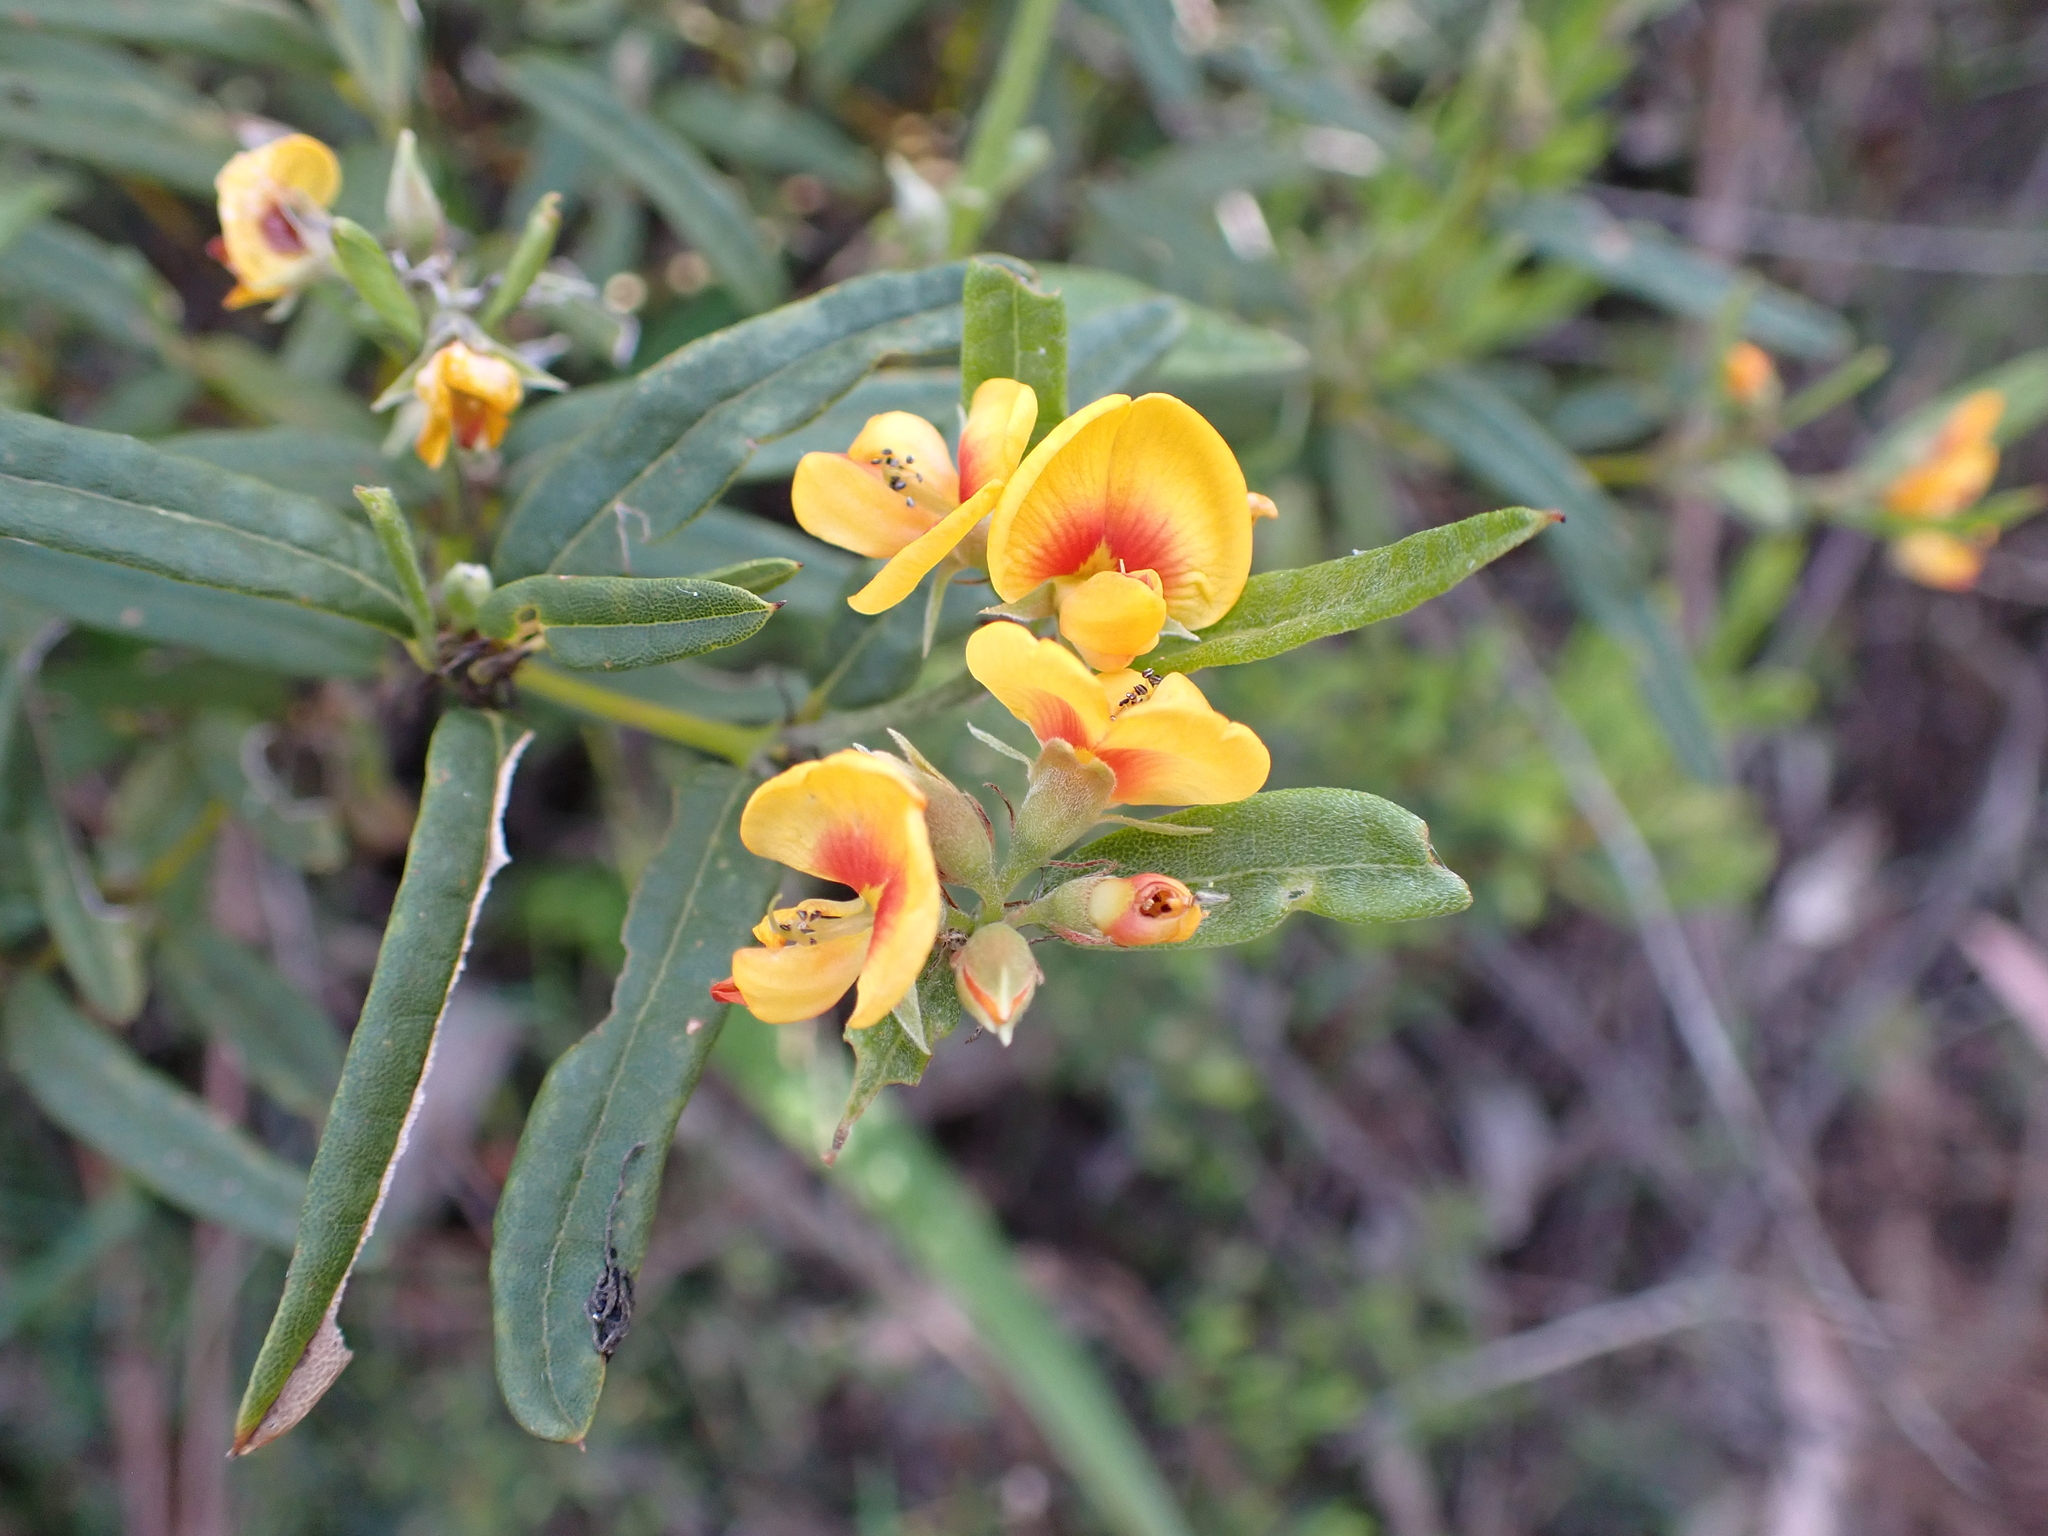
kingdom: Plantae
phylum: Tracheophyta
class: Magnoliopsida
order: Fabales
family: Fabaceae
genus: Podolobium
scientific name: Podolobium alpestre
